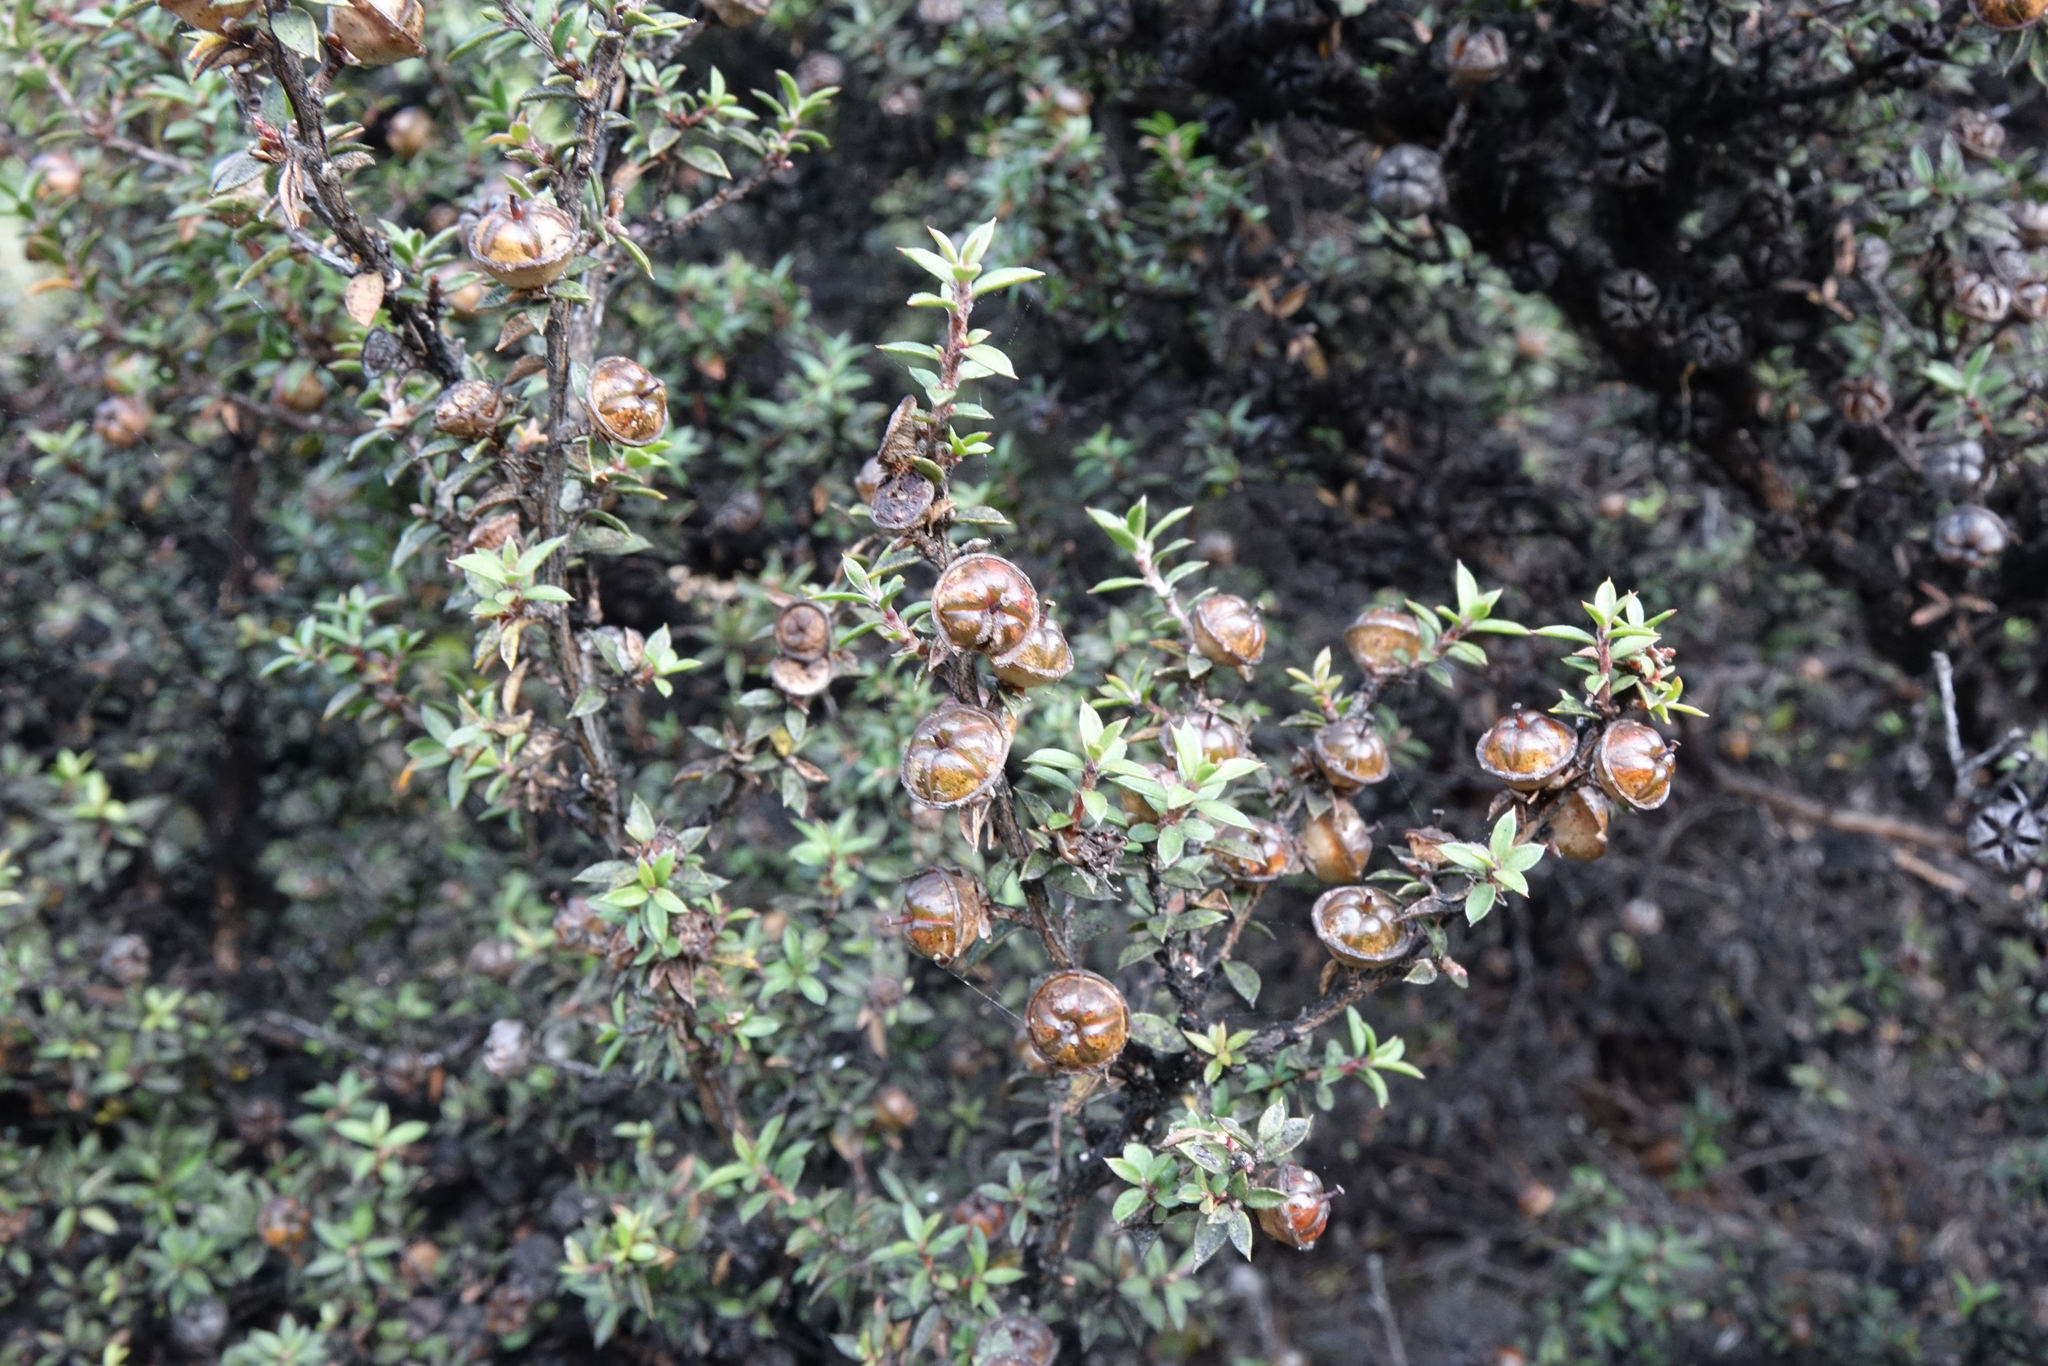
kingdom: Plantae
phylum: Tracheophyta
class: Magnoliopsida
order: Myrtales
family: Myrtaceae
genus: Leptospermum
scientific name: Leptospermum scoparium
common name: Broom tea-tree
